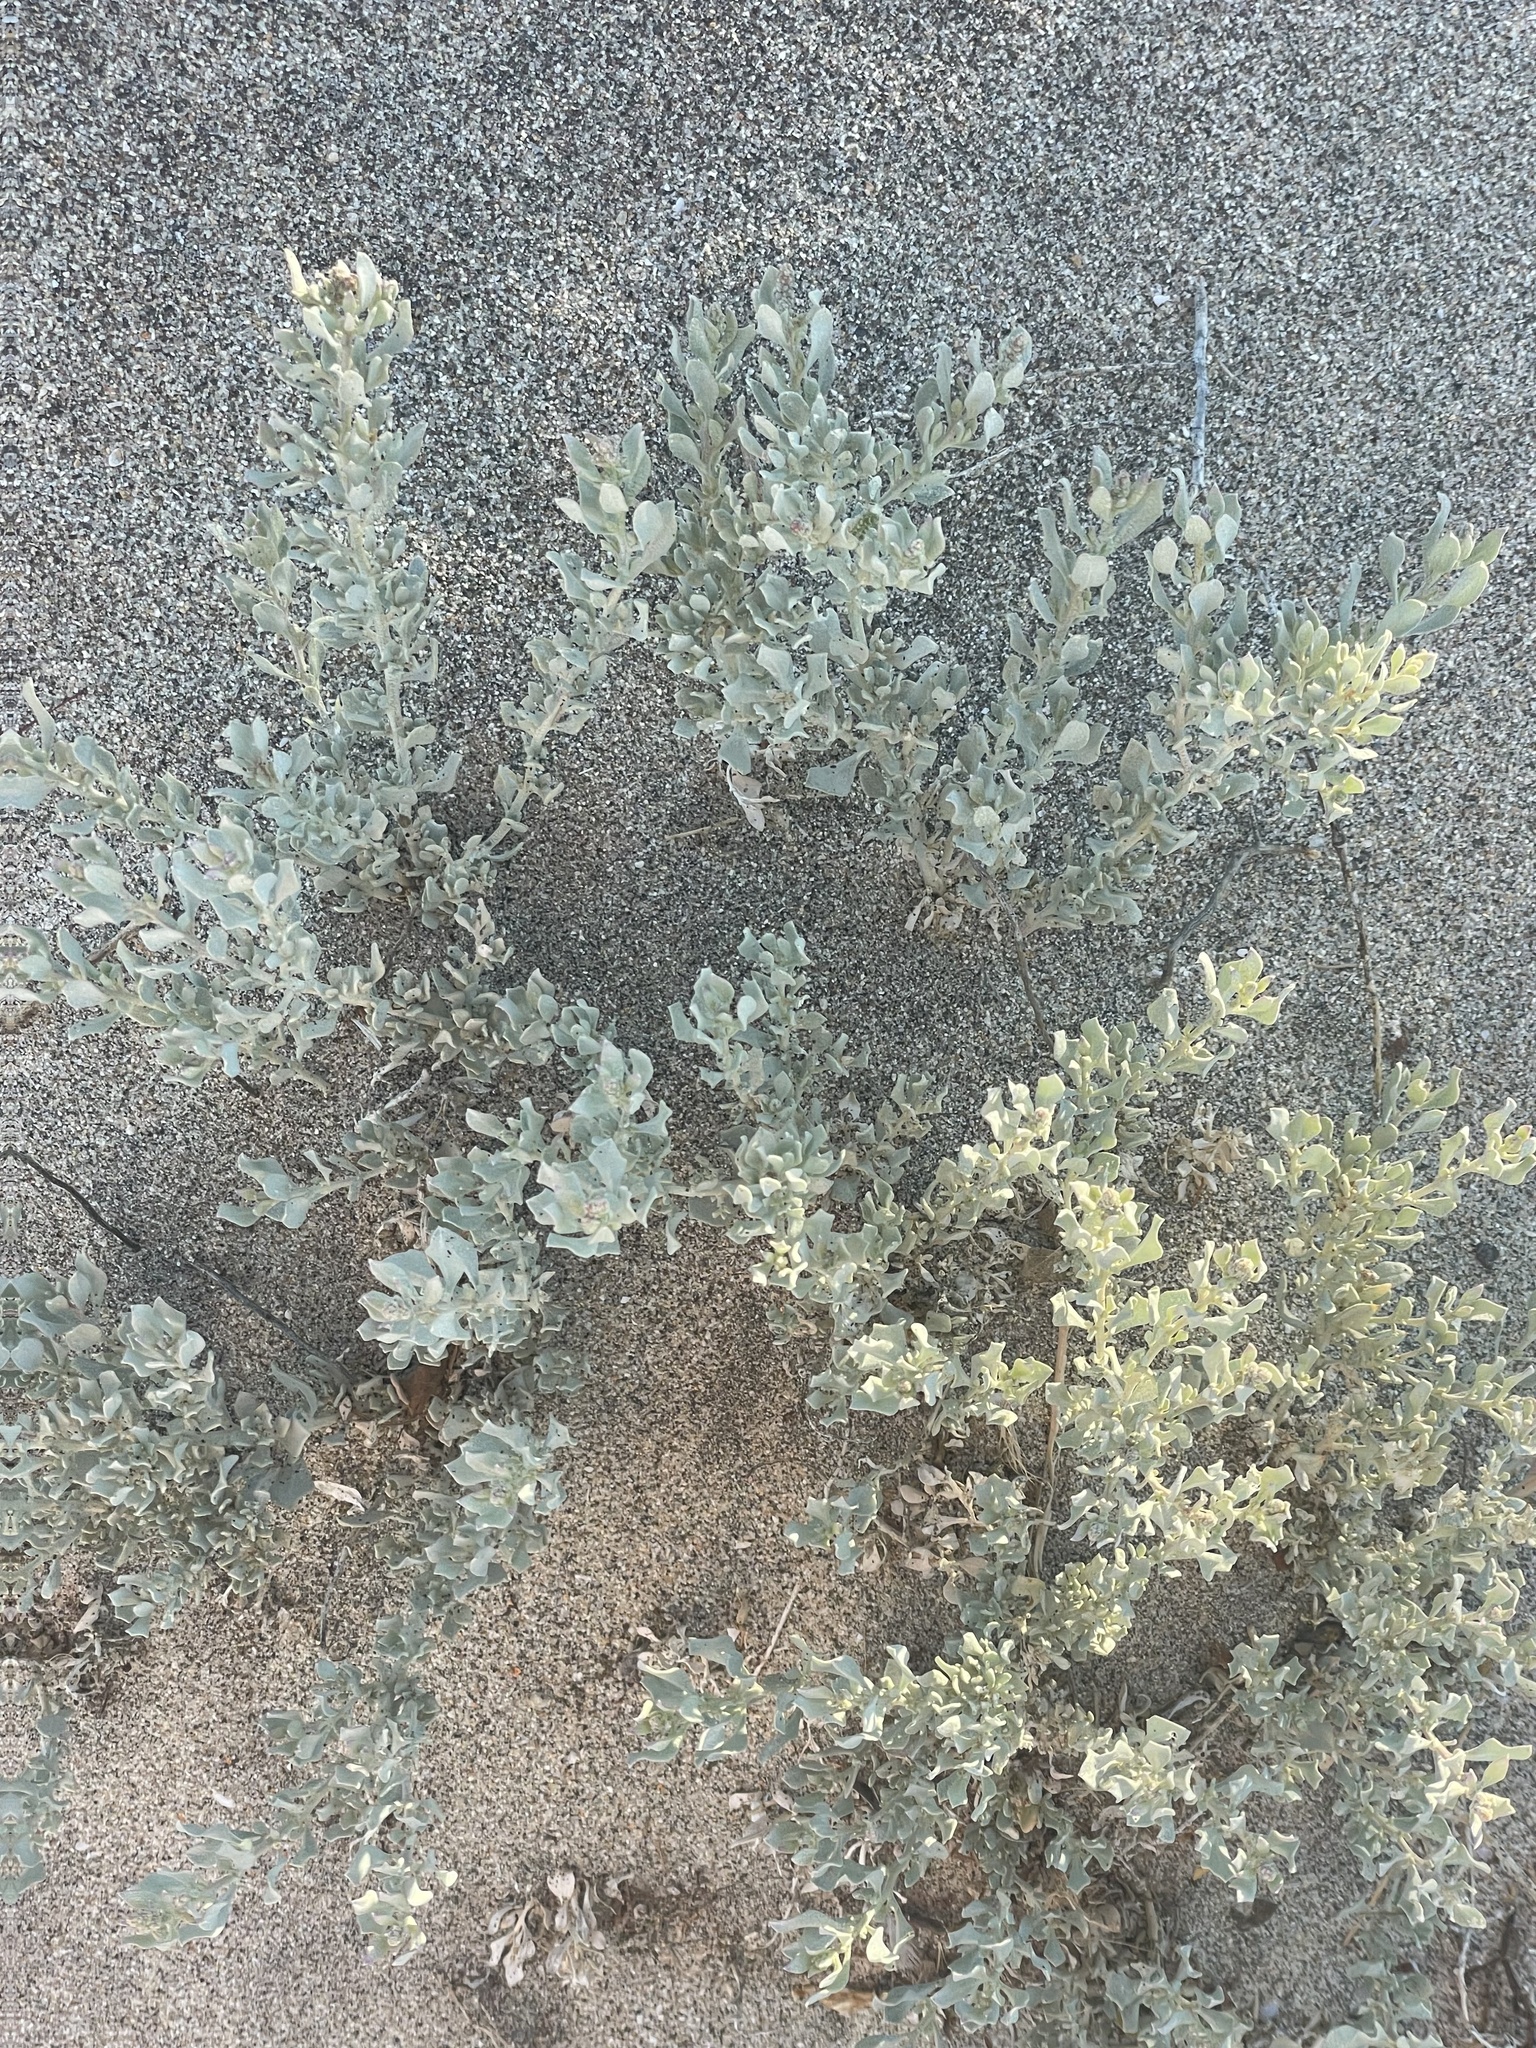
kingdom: Plantae
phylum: Tracheophyta
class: Magnoliopsida
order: Caryophyllales
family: Amaranthaceae
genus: Atriplex
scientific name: Atriplex leucophylla
